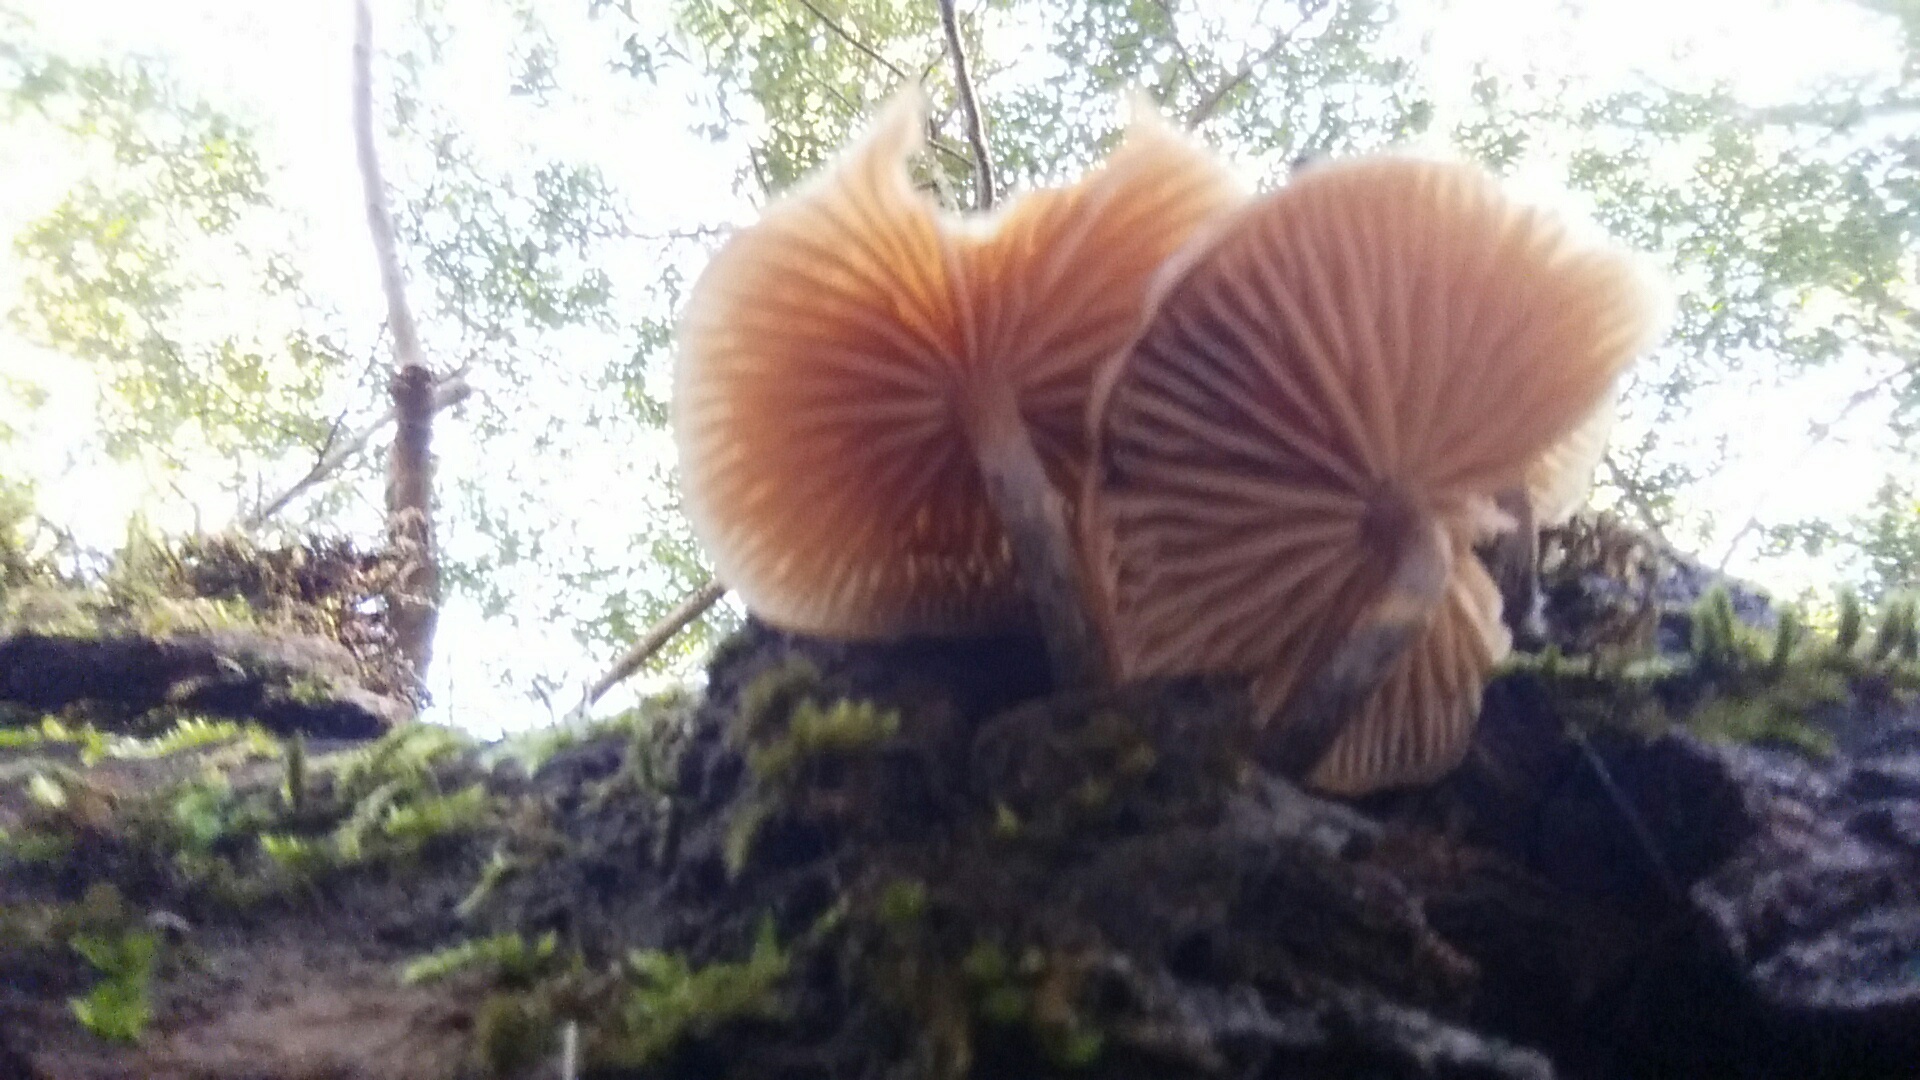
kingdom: Fungi
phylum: Basidiomycota
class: Agaricomycetes
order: Agaricales
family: Hymenogastraceae
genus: Galerina
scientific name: Galerina marginata
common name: Funeral bell
